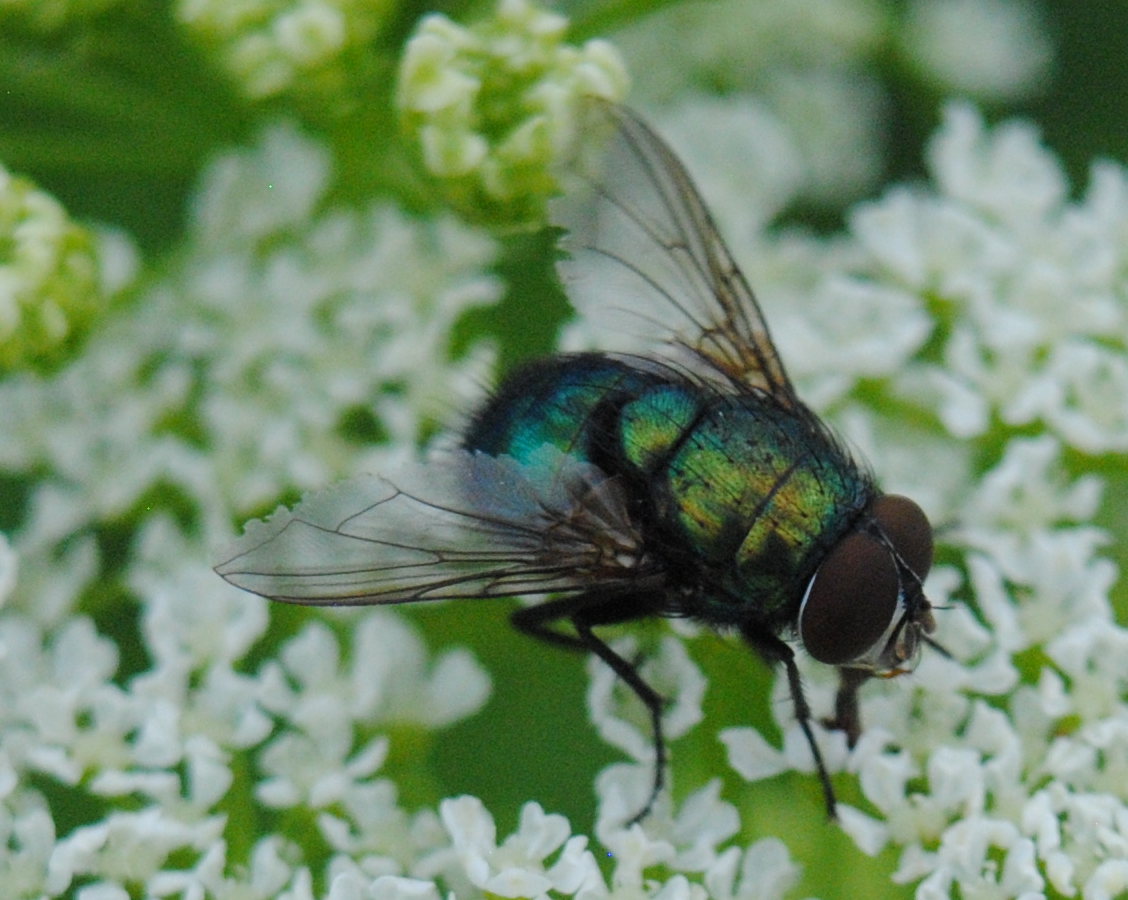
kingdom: Animalia
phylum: Arthropoda
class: Insecta
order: Diptera
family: Calliphoridae
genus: Lucilia
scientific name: Lucilia
